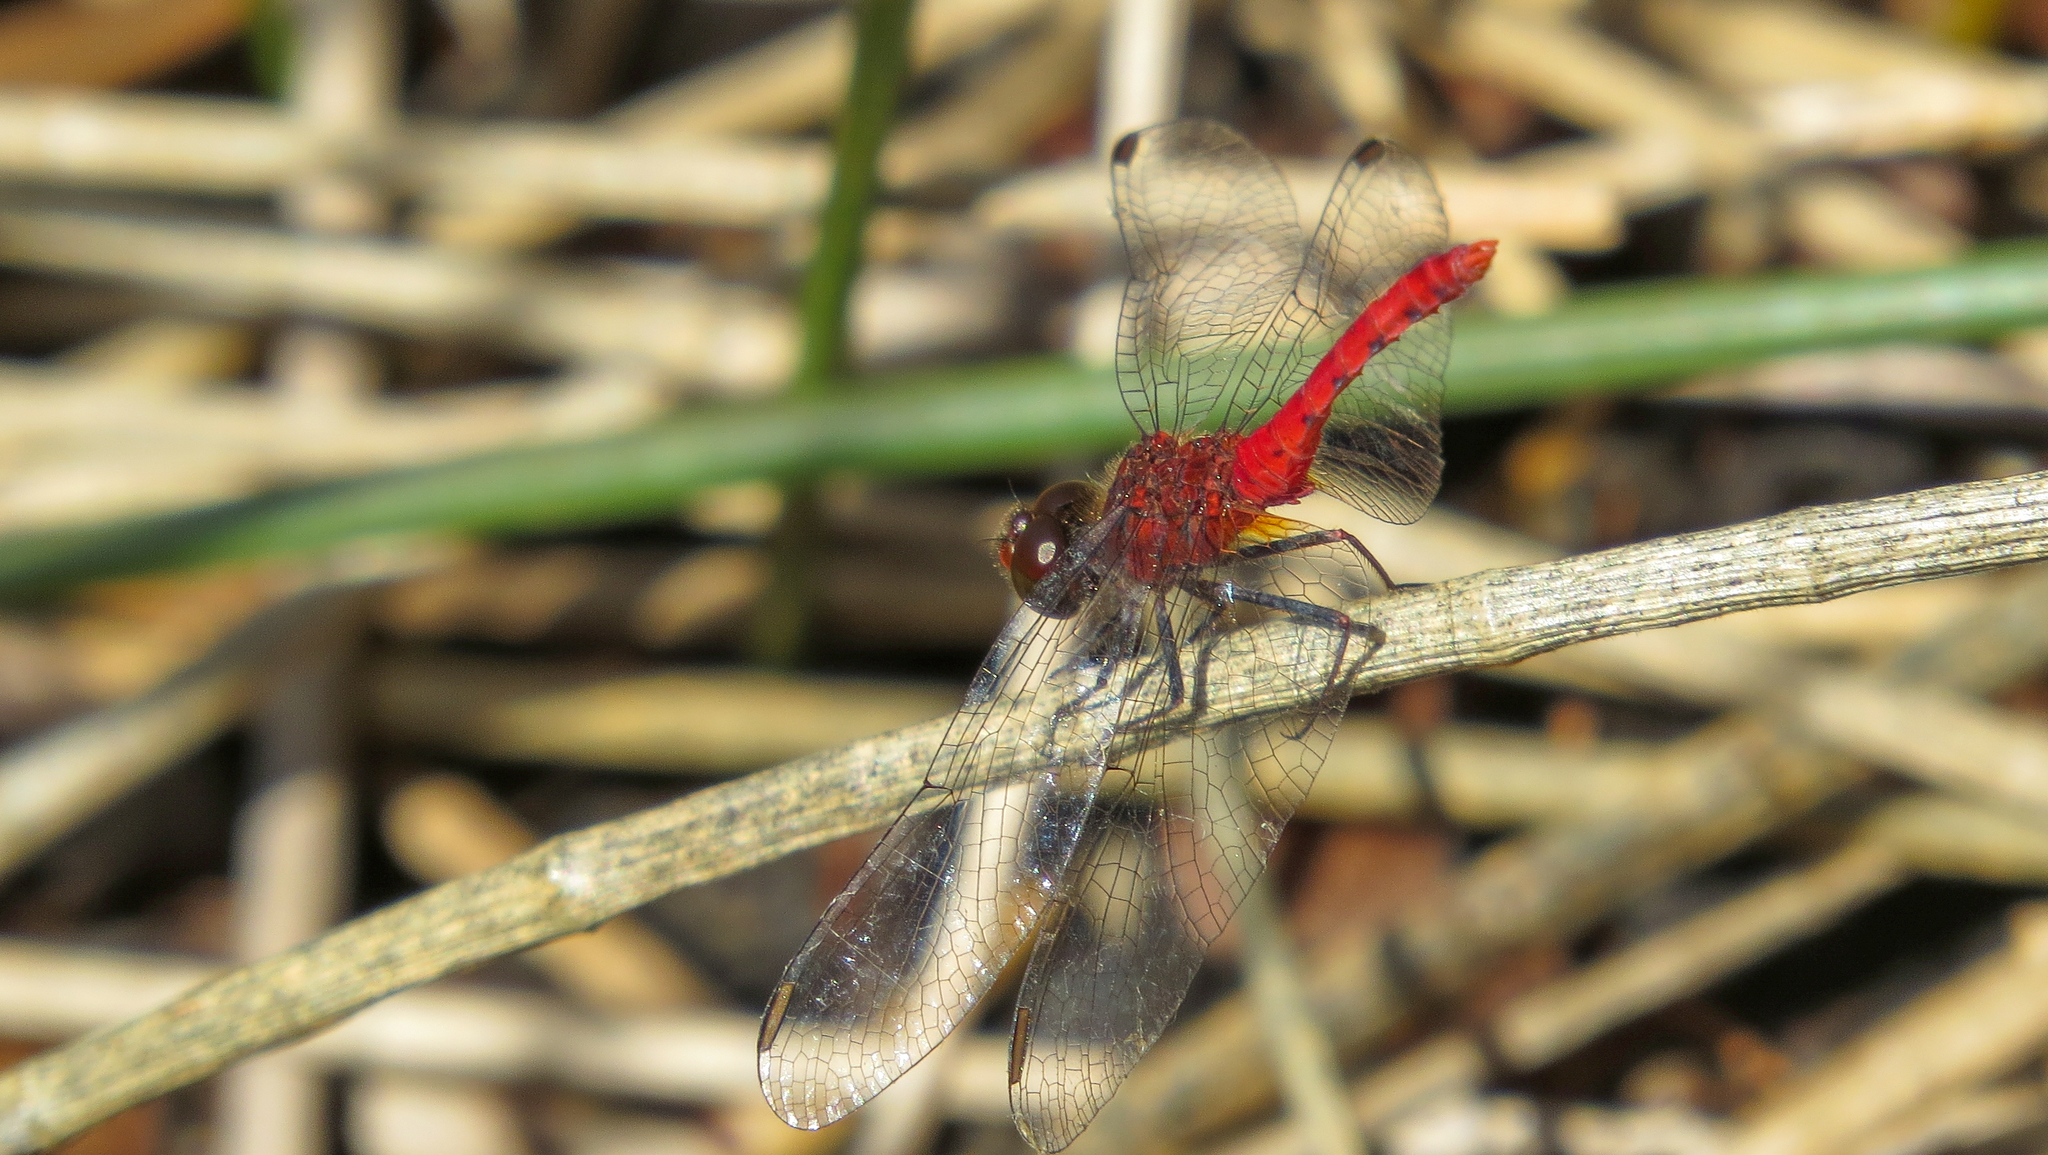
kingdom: Animalia
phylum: Arthropoda
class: Insecta
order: Odonata
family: Libellulidae
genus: Nannodiplax
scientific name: Nannodiplax rubra
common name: Pygmy percher
